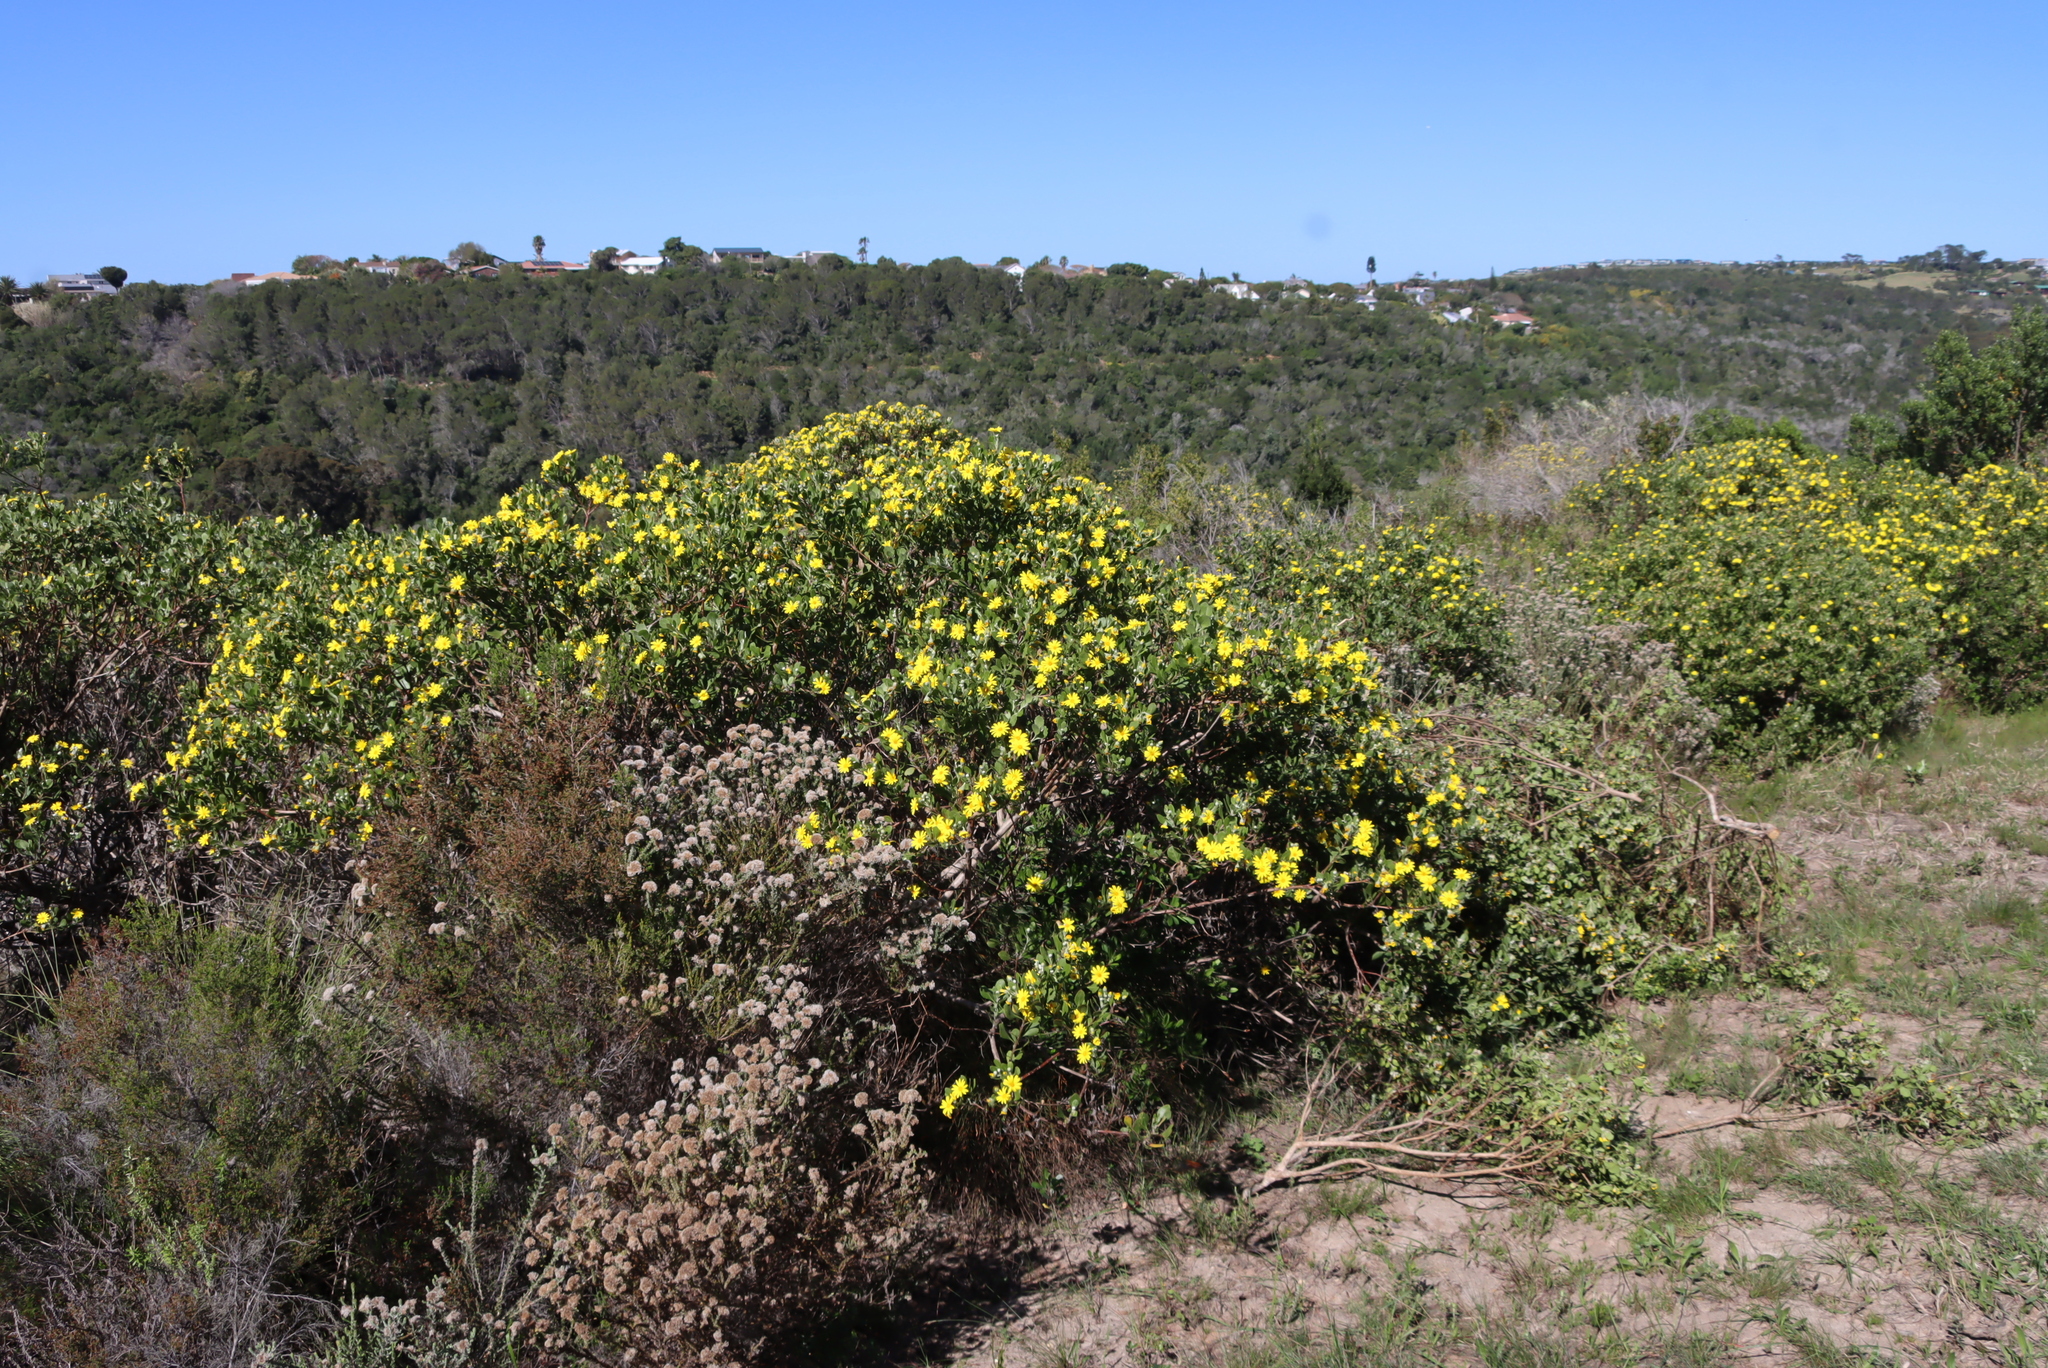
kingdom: Plantae
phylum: Tracheophyta
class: Magnoliopsida
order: Asterales
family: Asteraceae
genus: Osteospermum
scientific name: Osteospermum moniliferum
